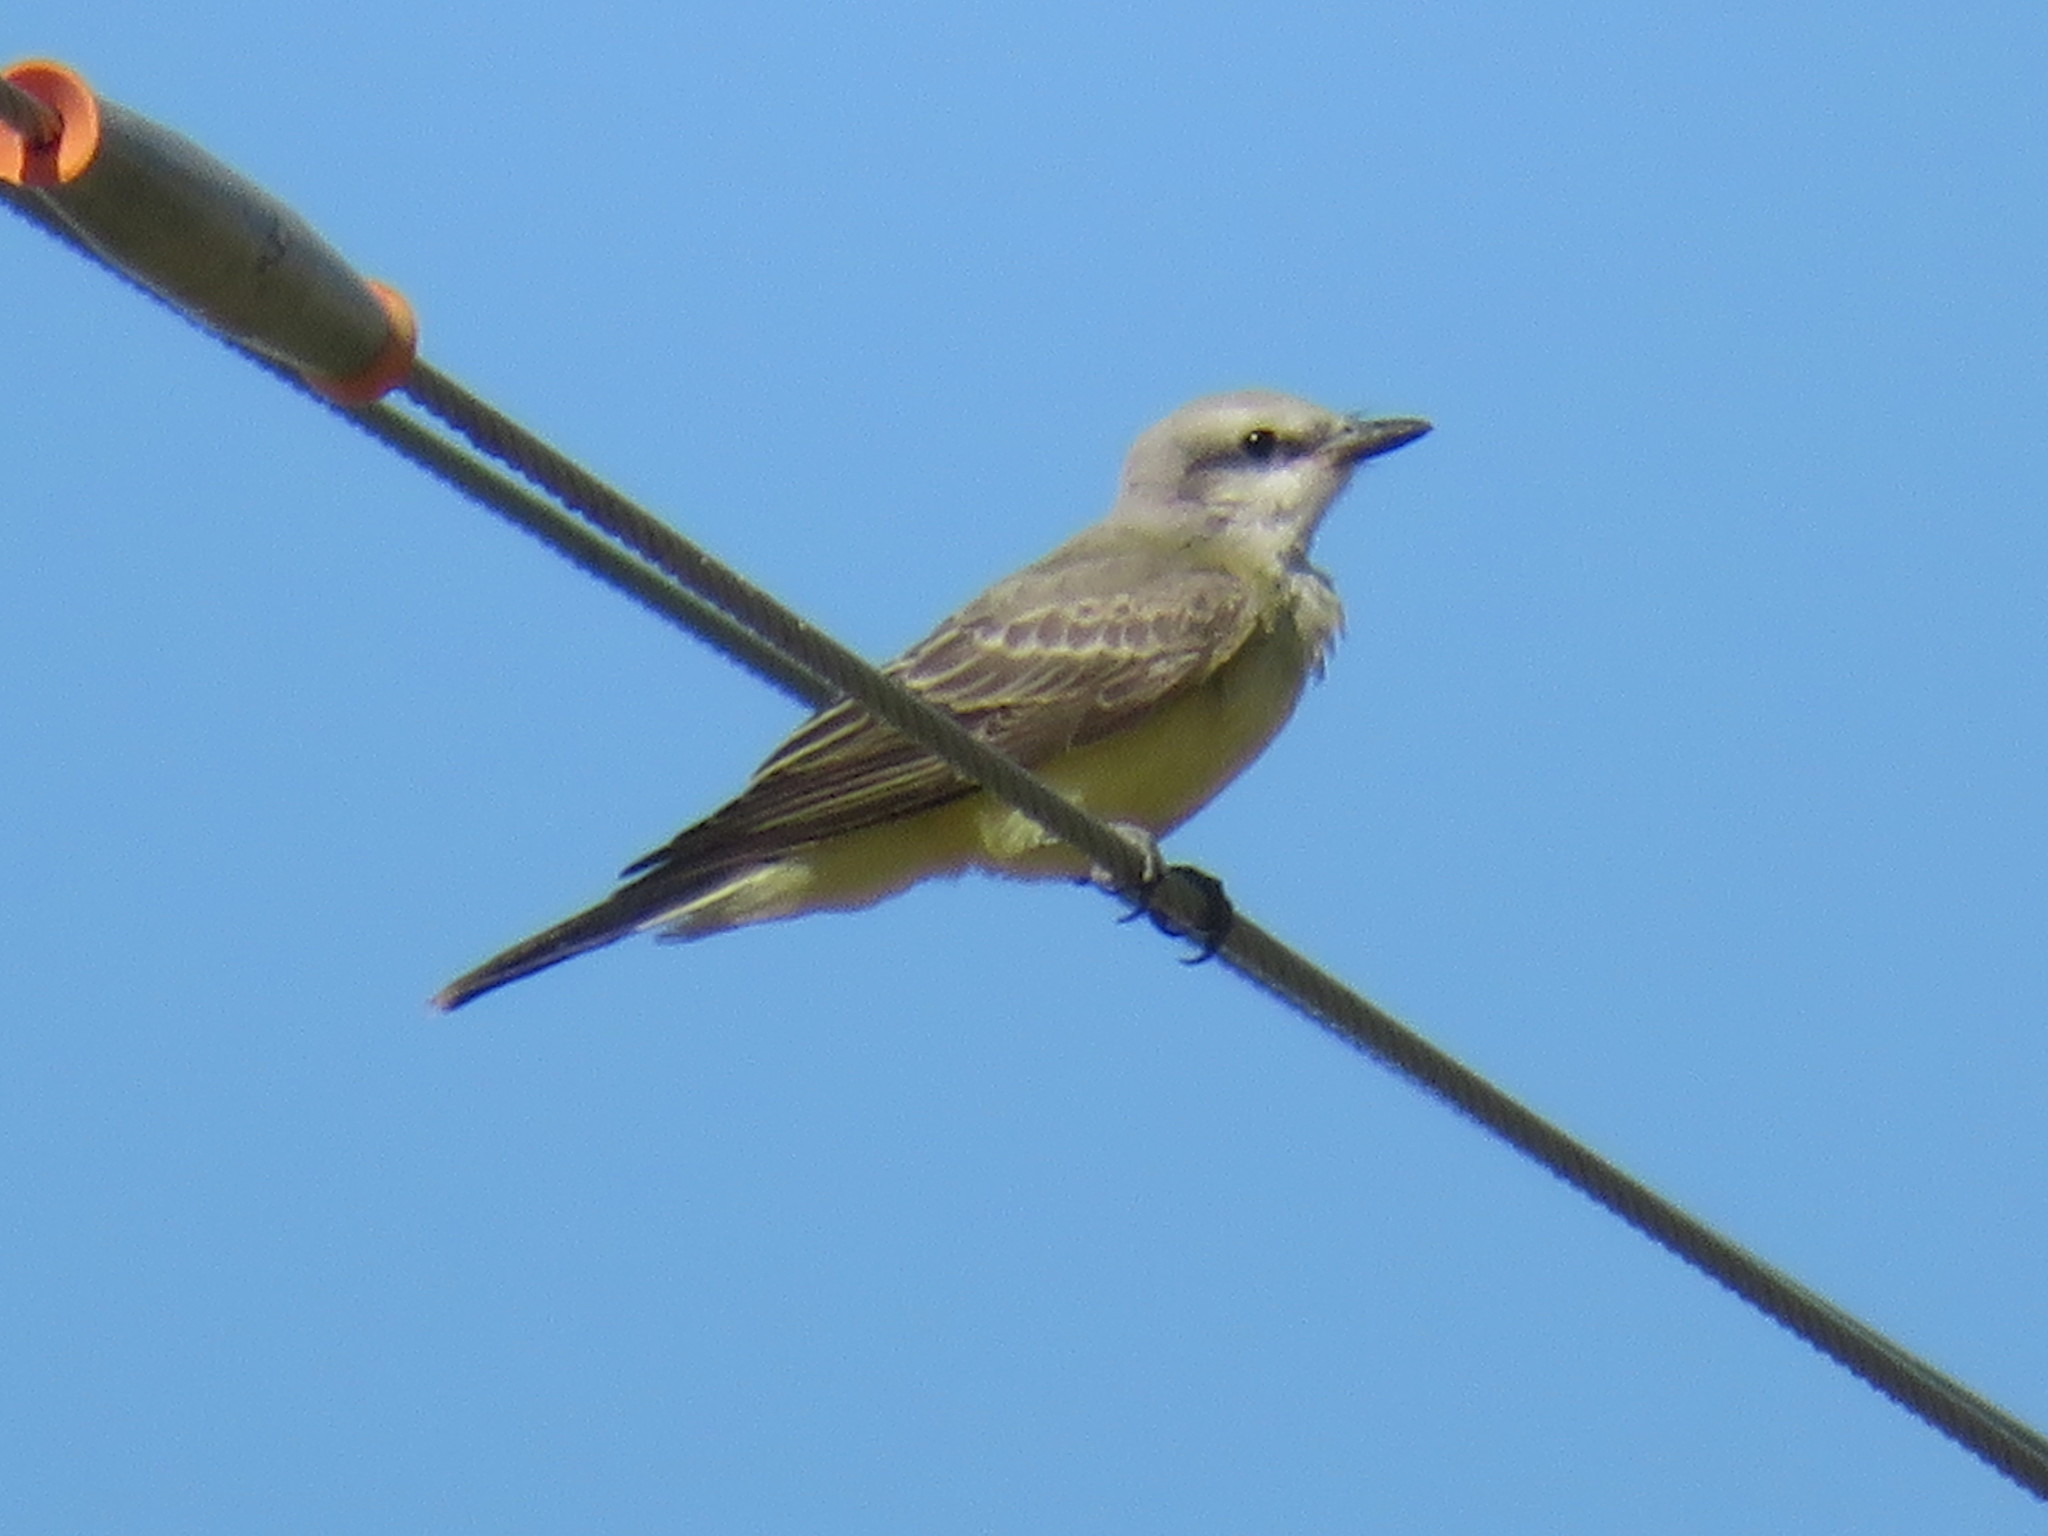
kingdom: Animalia
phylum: Chordata
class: Aves
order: Passeriformes
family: Tyrannidae
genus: Tyrannus
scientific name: Tyrannus verticalis
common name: Western kingbird
